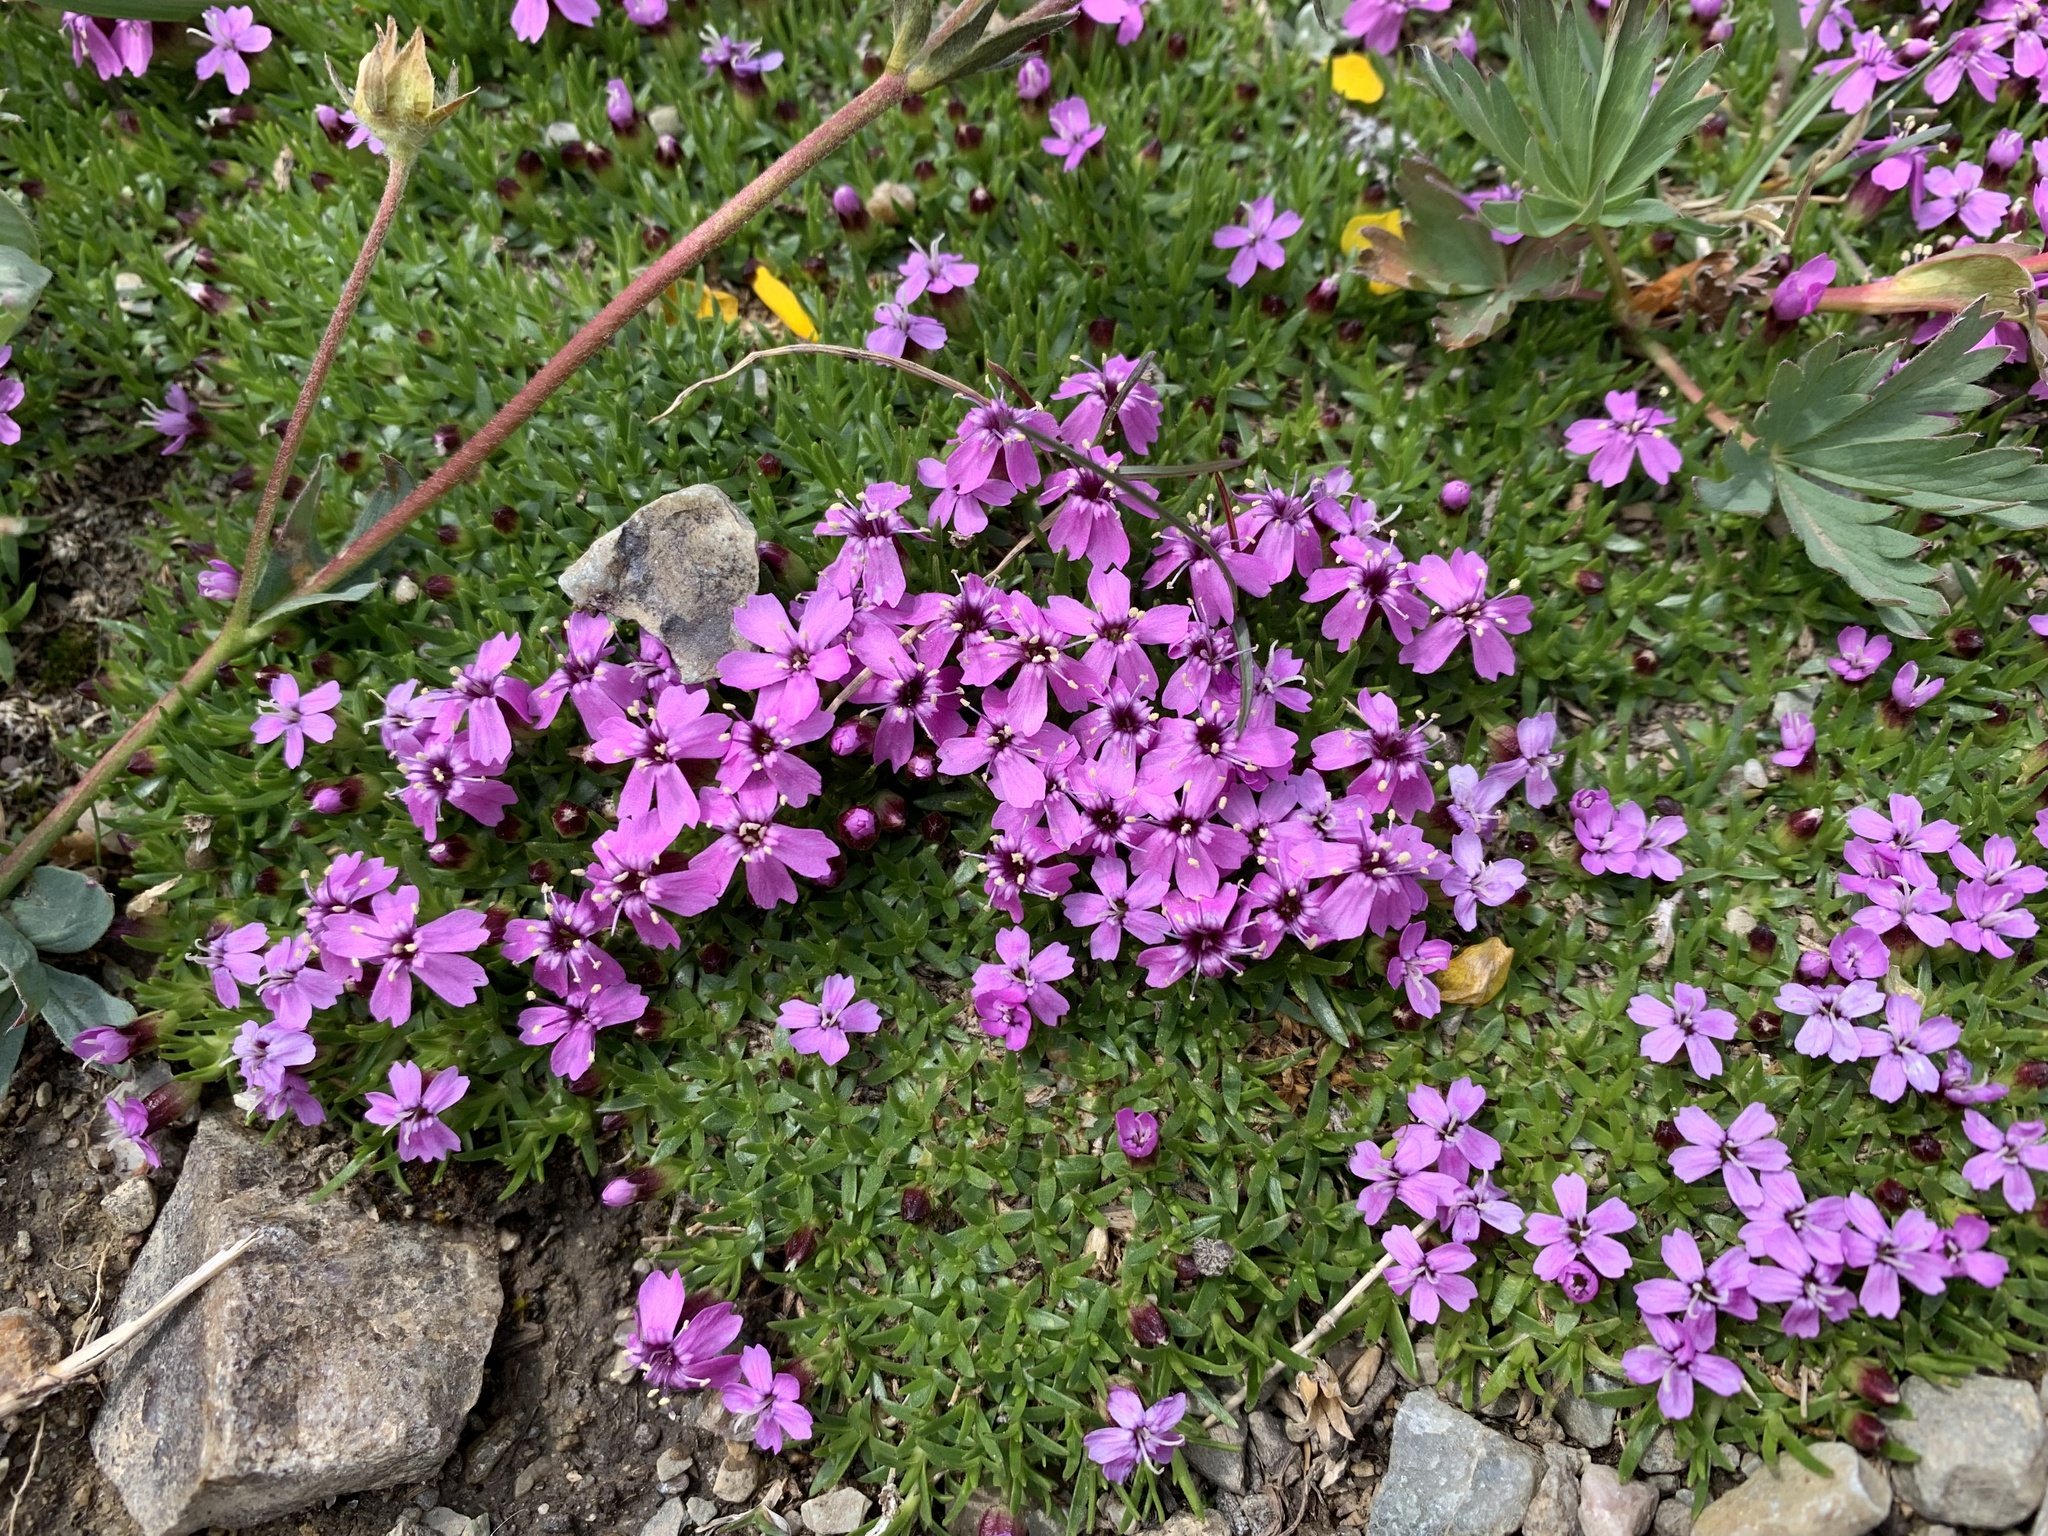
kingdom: Plantae
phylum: Tracheophyta
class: Magnoliopsida
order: Caryophyllales
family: Caryophyllaceae
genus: Silene
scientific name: Silene acaulis
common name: Moss campion
